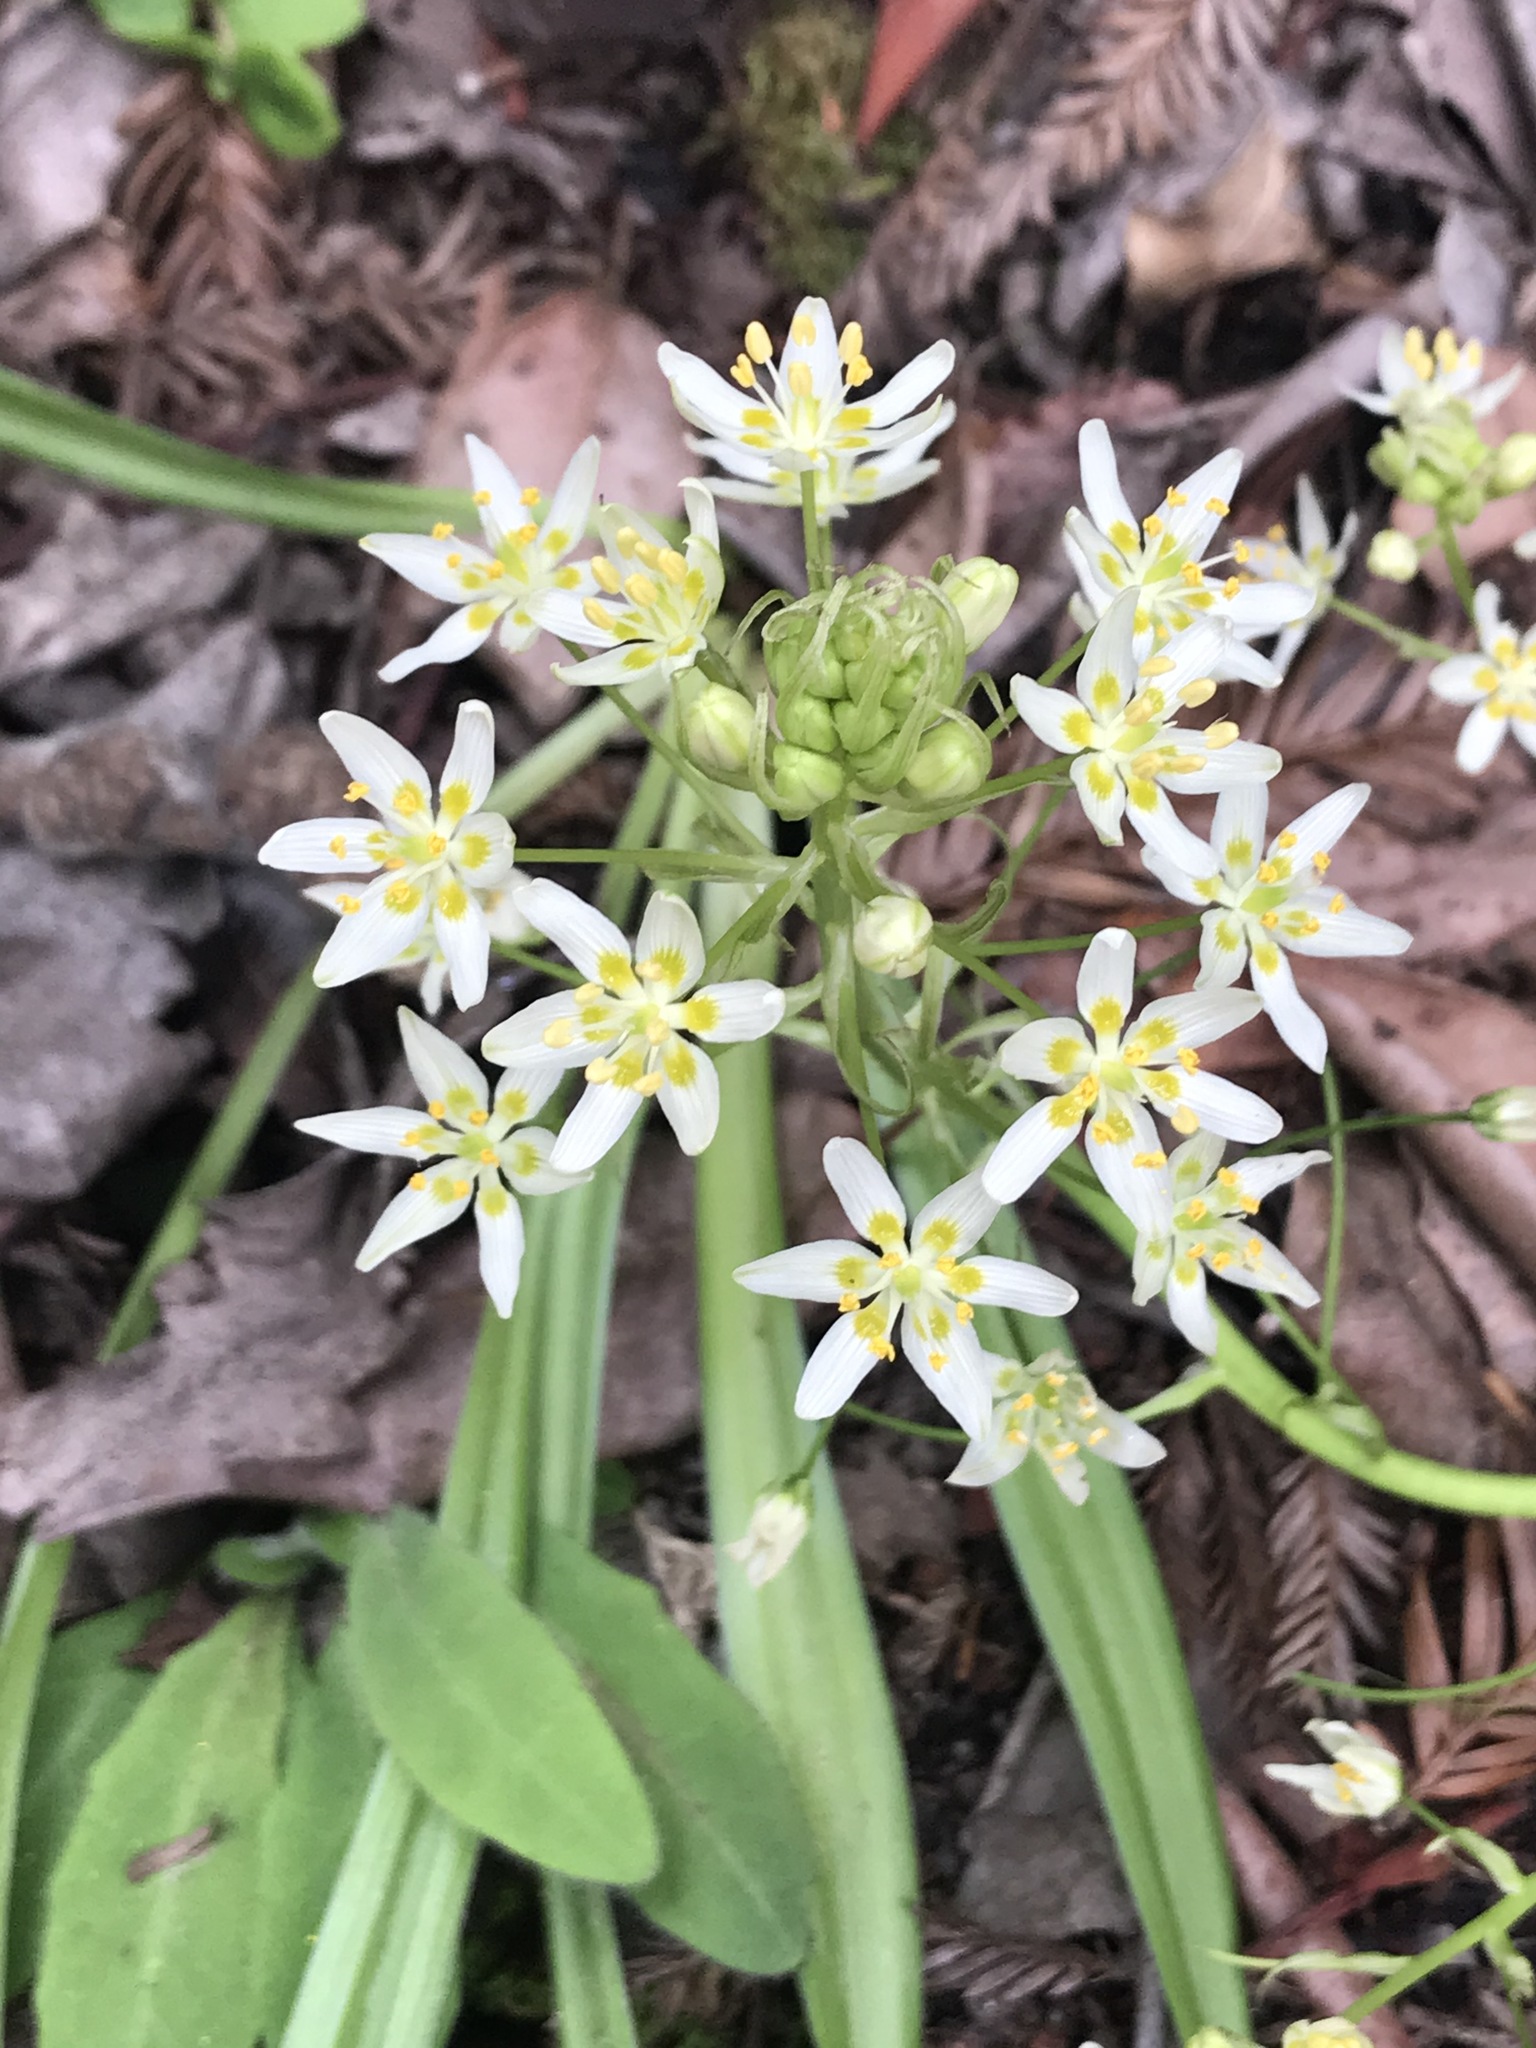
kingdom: Plantae
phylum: Tracheophyta
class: Liliopsida
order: Liliales
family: Melanthiaceae
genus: Toxicoscordion
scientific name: Toxicoscordion fremontii
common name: Fremont's death camas
